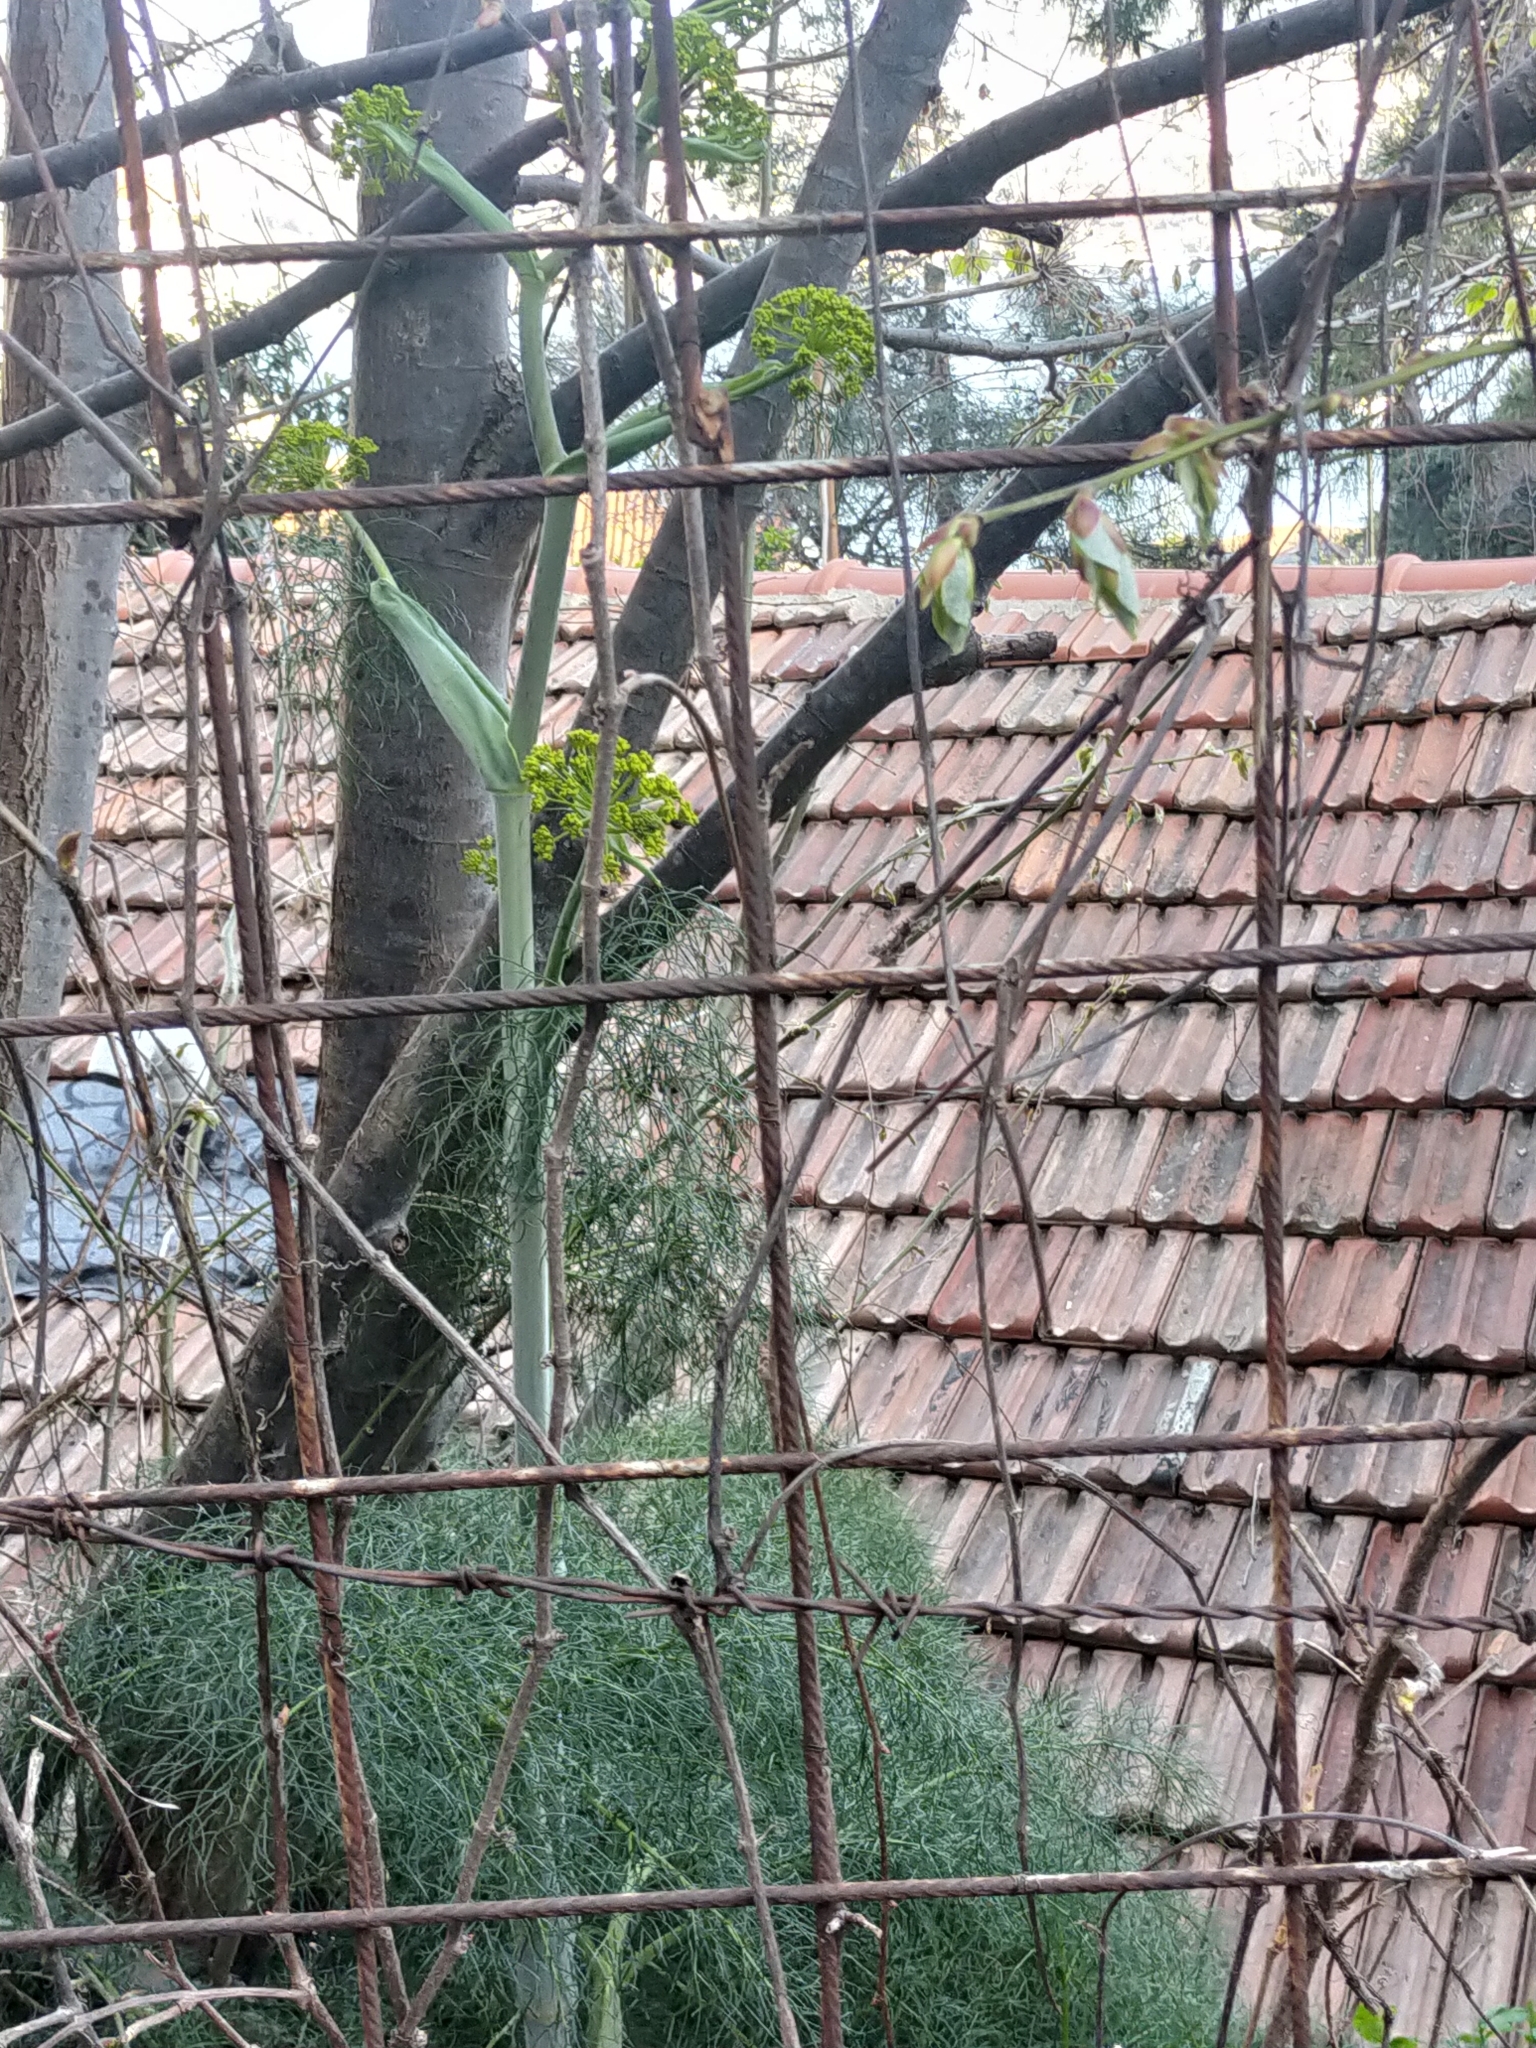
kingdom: Plantae
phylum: Tracheophyta
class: Magnoliopsida
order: Apiales
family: Apiaceae
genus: Ferula
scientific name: Ferula communis
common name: Giant fennel
